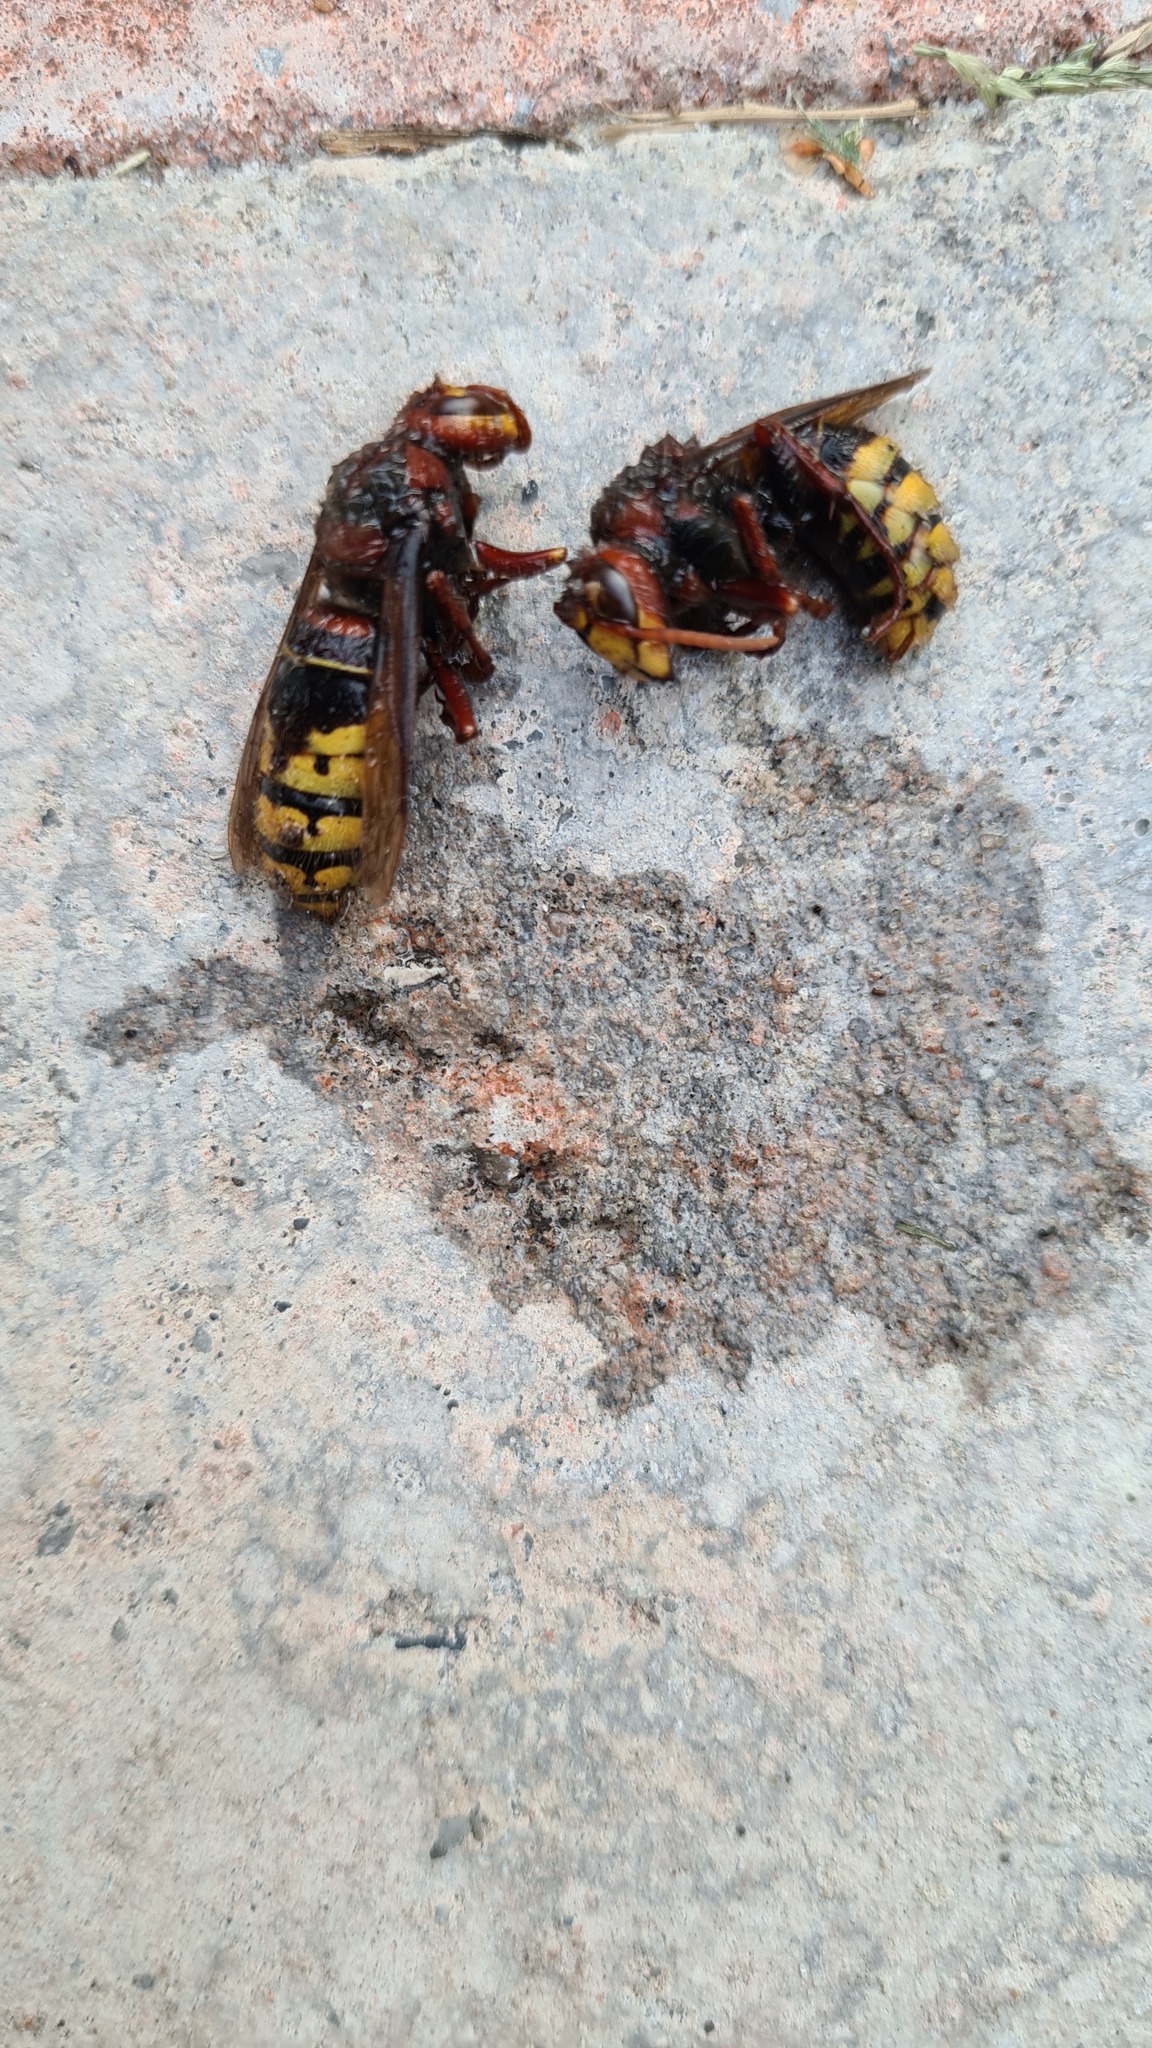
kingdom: Animalia
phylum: Arthropoda
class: Insecta
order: Hymenoptera
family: Vespidae
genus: Vespa
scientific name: Vespa crabro
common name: Hornet
